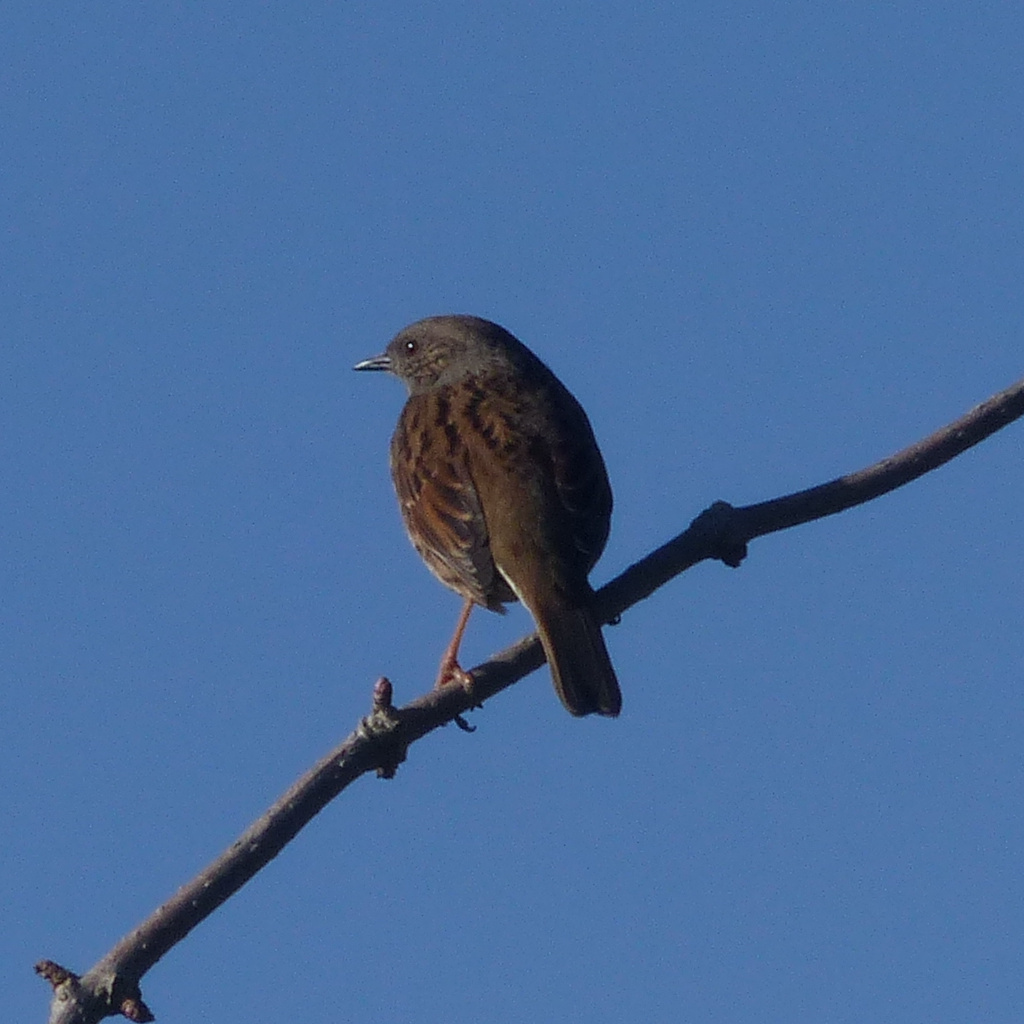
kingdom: Animalia
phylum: Chordata
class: Aves
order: Passeriformes
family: Prunellidae
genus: Prunella
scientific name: Prunella modularis
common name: Dunnock
